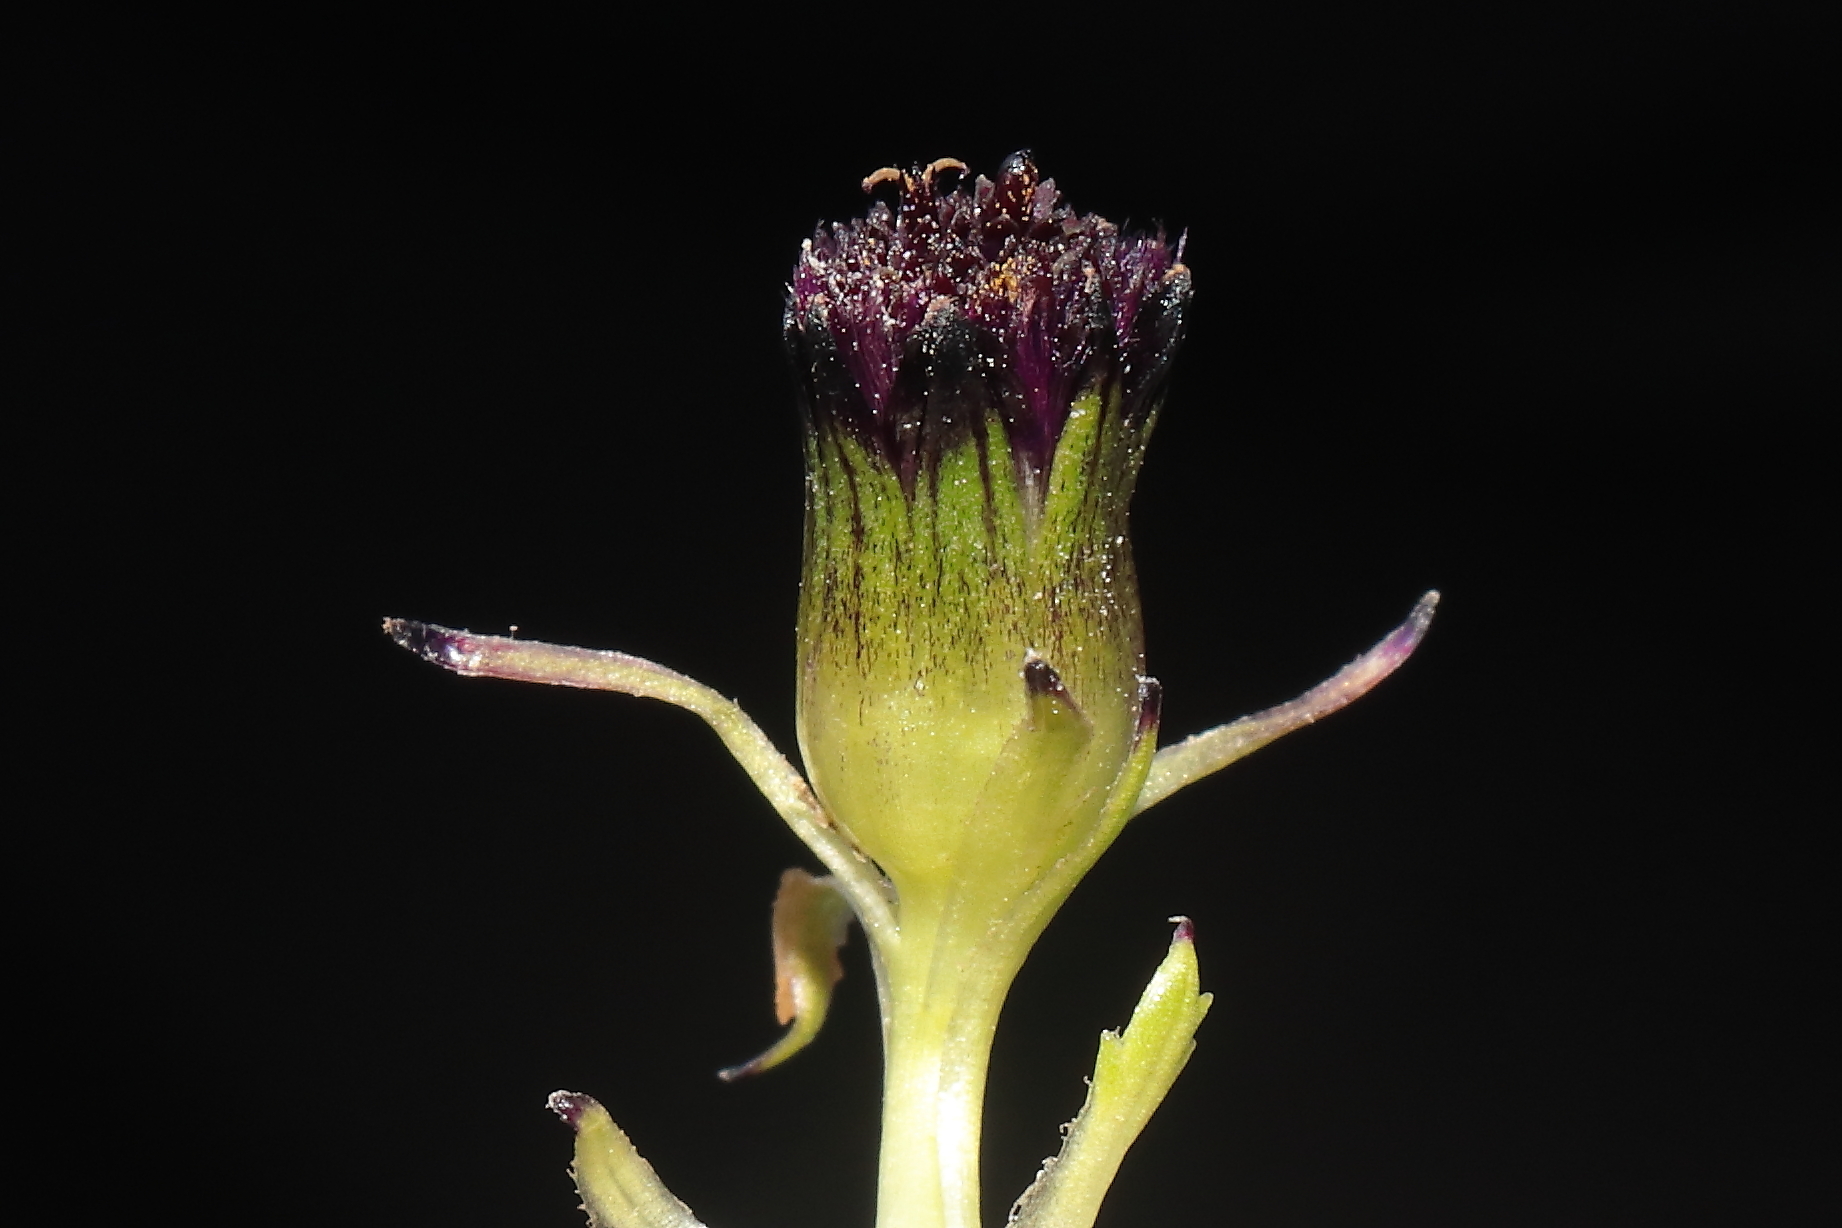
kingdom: Plantae
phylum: Tracheophyta
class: Magnoliopsida
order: Asterales
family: Asteraceae
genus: Rockhausenia
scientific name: Rockhausenia solivifolia
